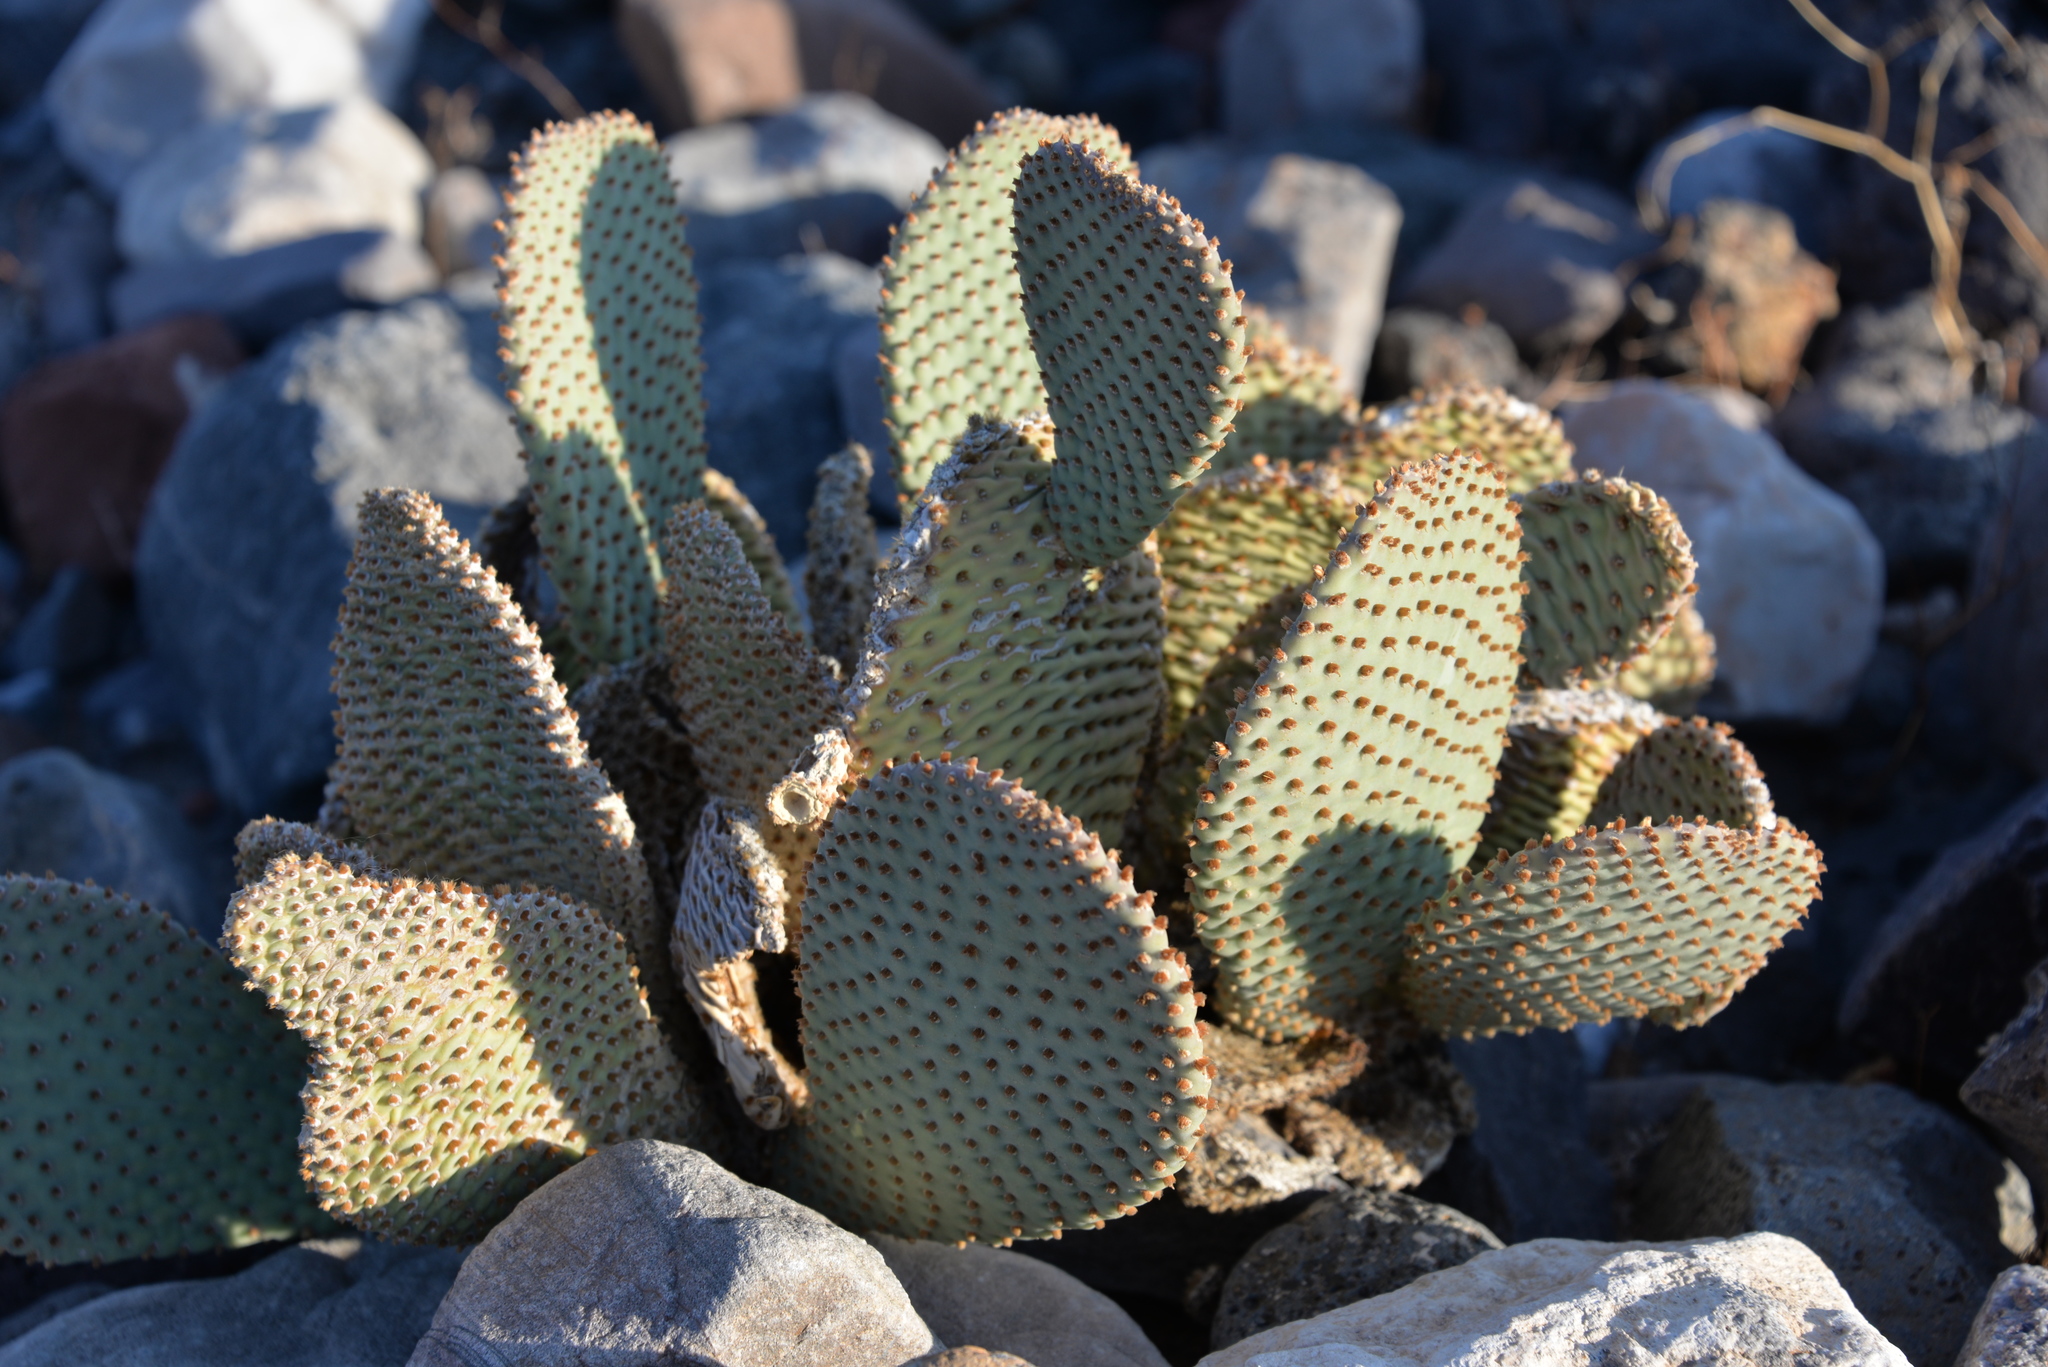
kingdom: Plantae
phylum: Tracheophyta
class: Magnoliopsida
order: Caryophyllales
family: Cactaceae
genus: Opuntia
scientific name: Opuntia basilaris
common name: Beavertail prickly-pear
